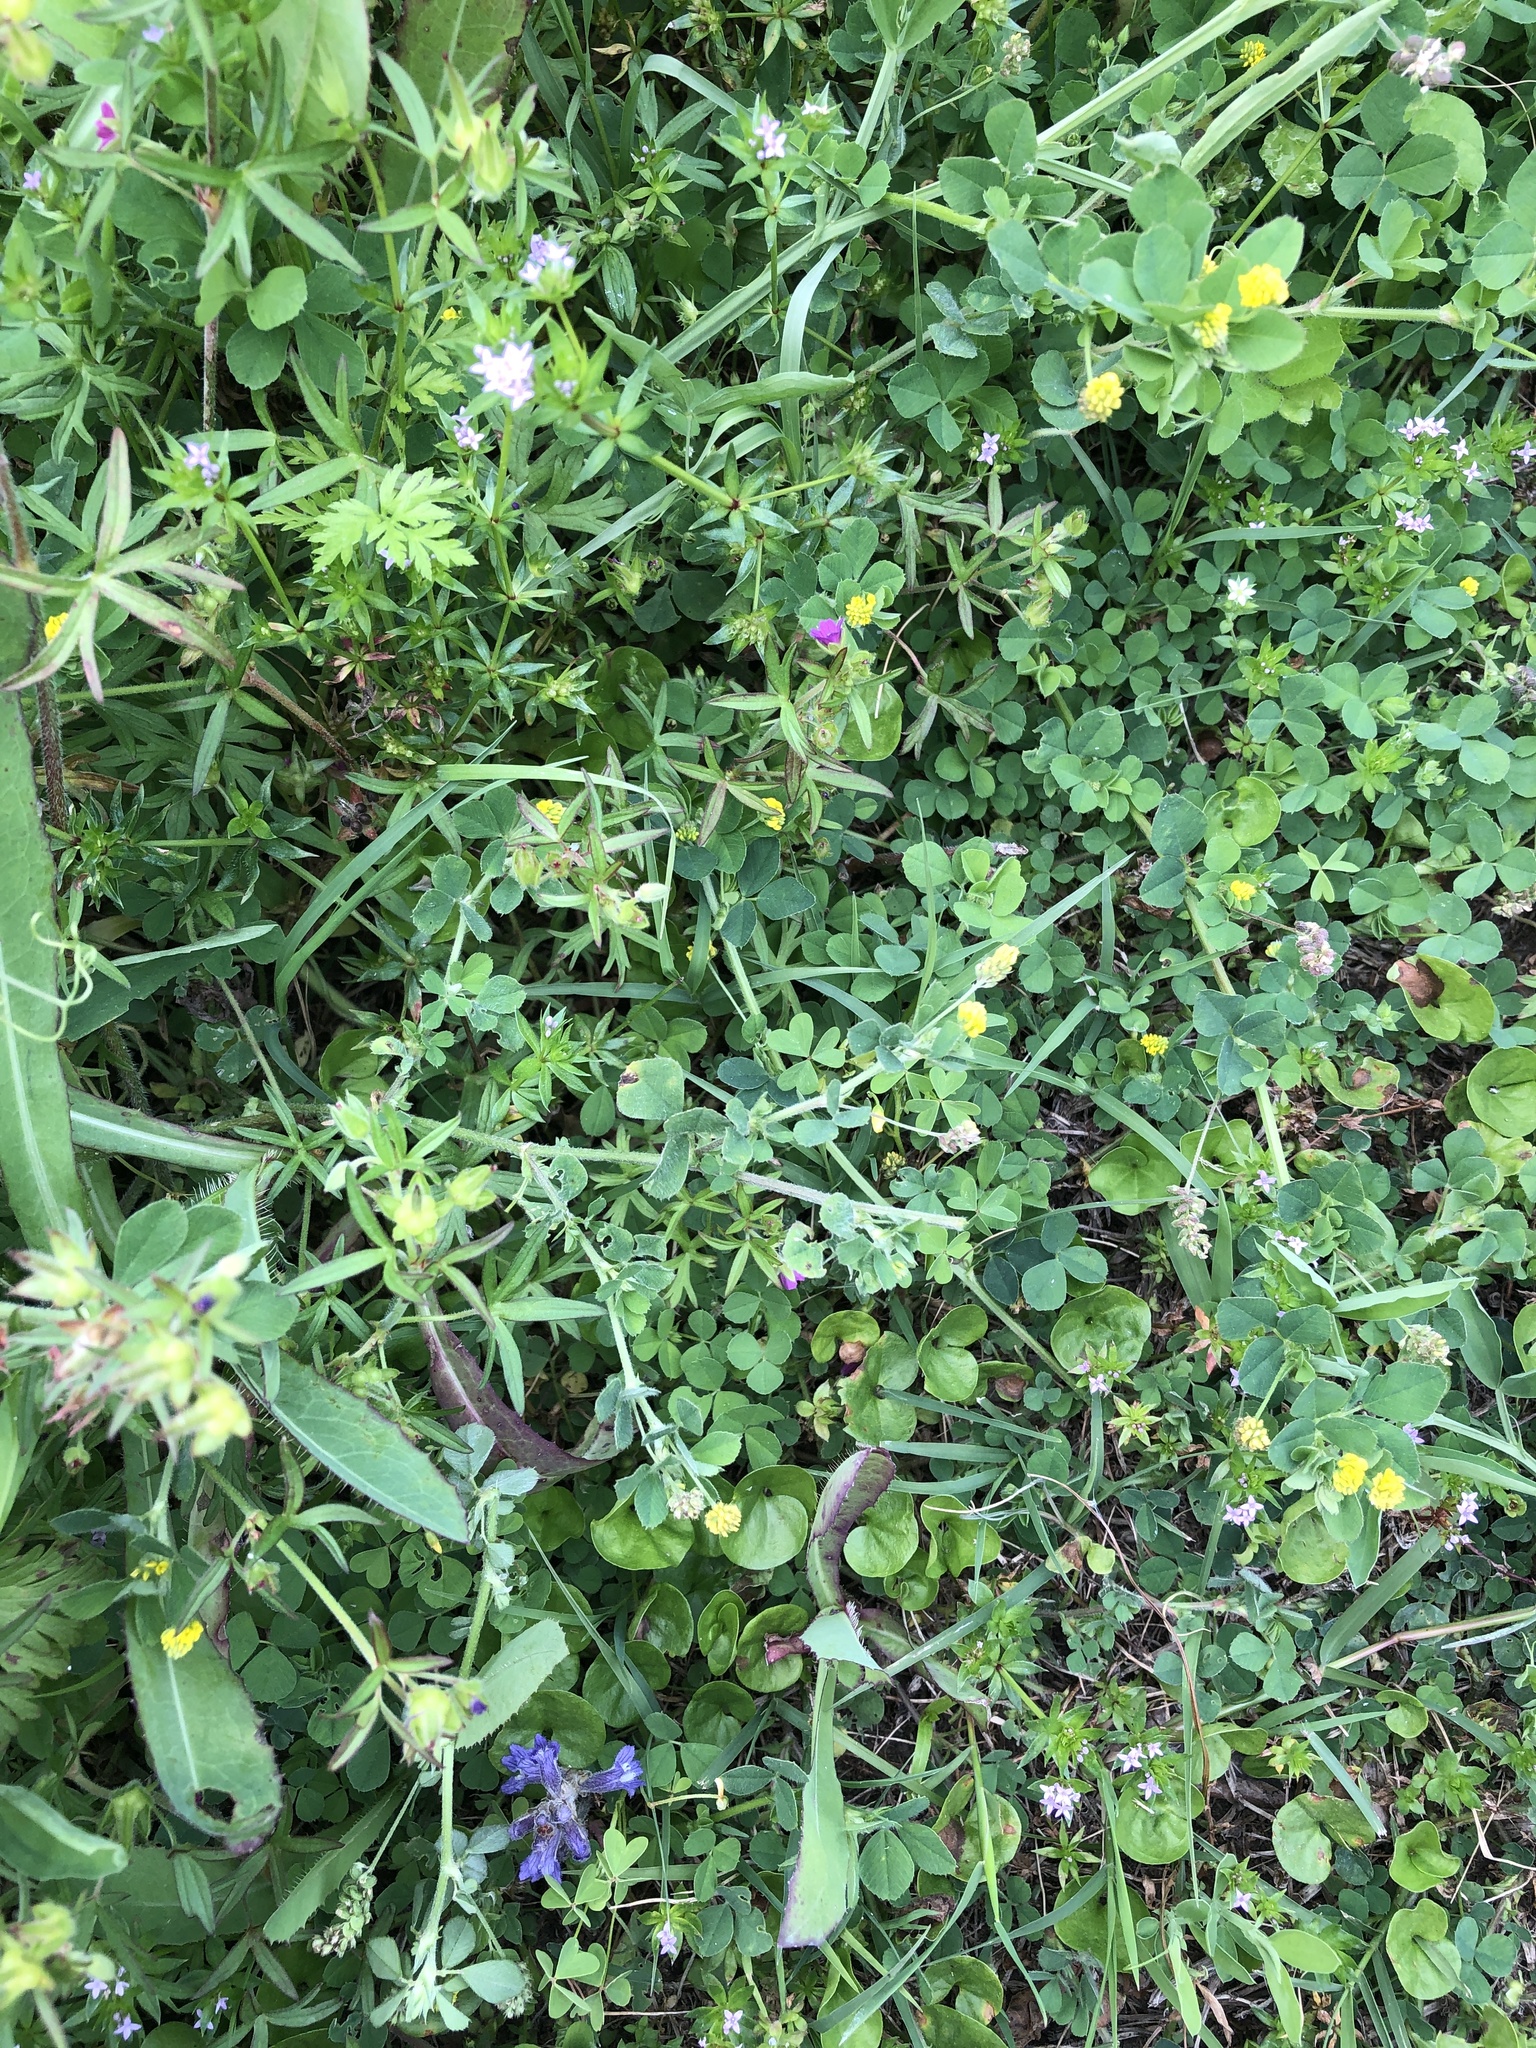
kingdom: Plantae
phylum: Tracheophyta
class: Magnoliopsida
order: Fabales
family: Fabaceae
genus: Medicago
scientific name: Medicago lupulina
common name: Black medick
